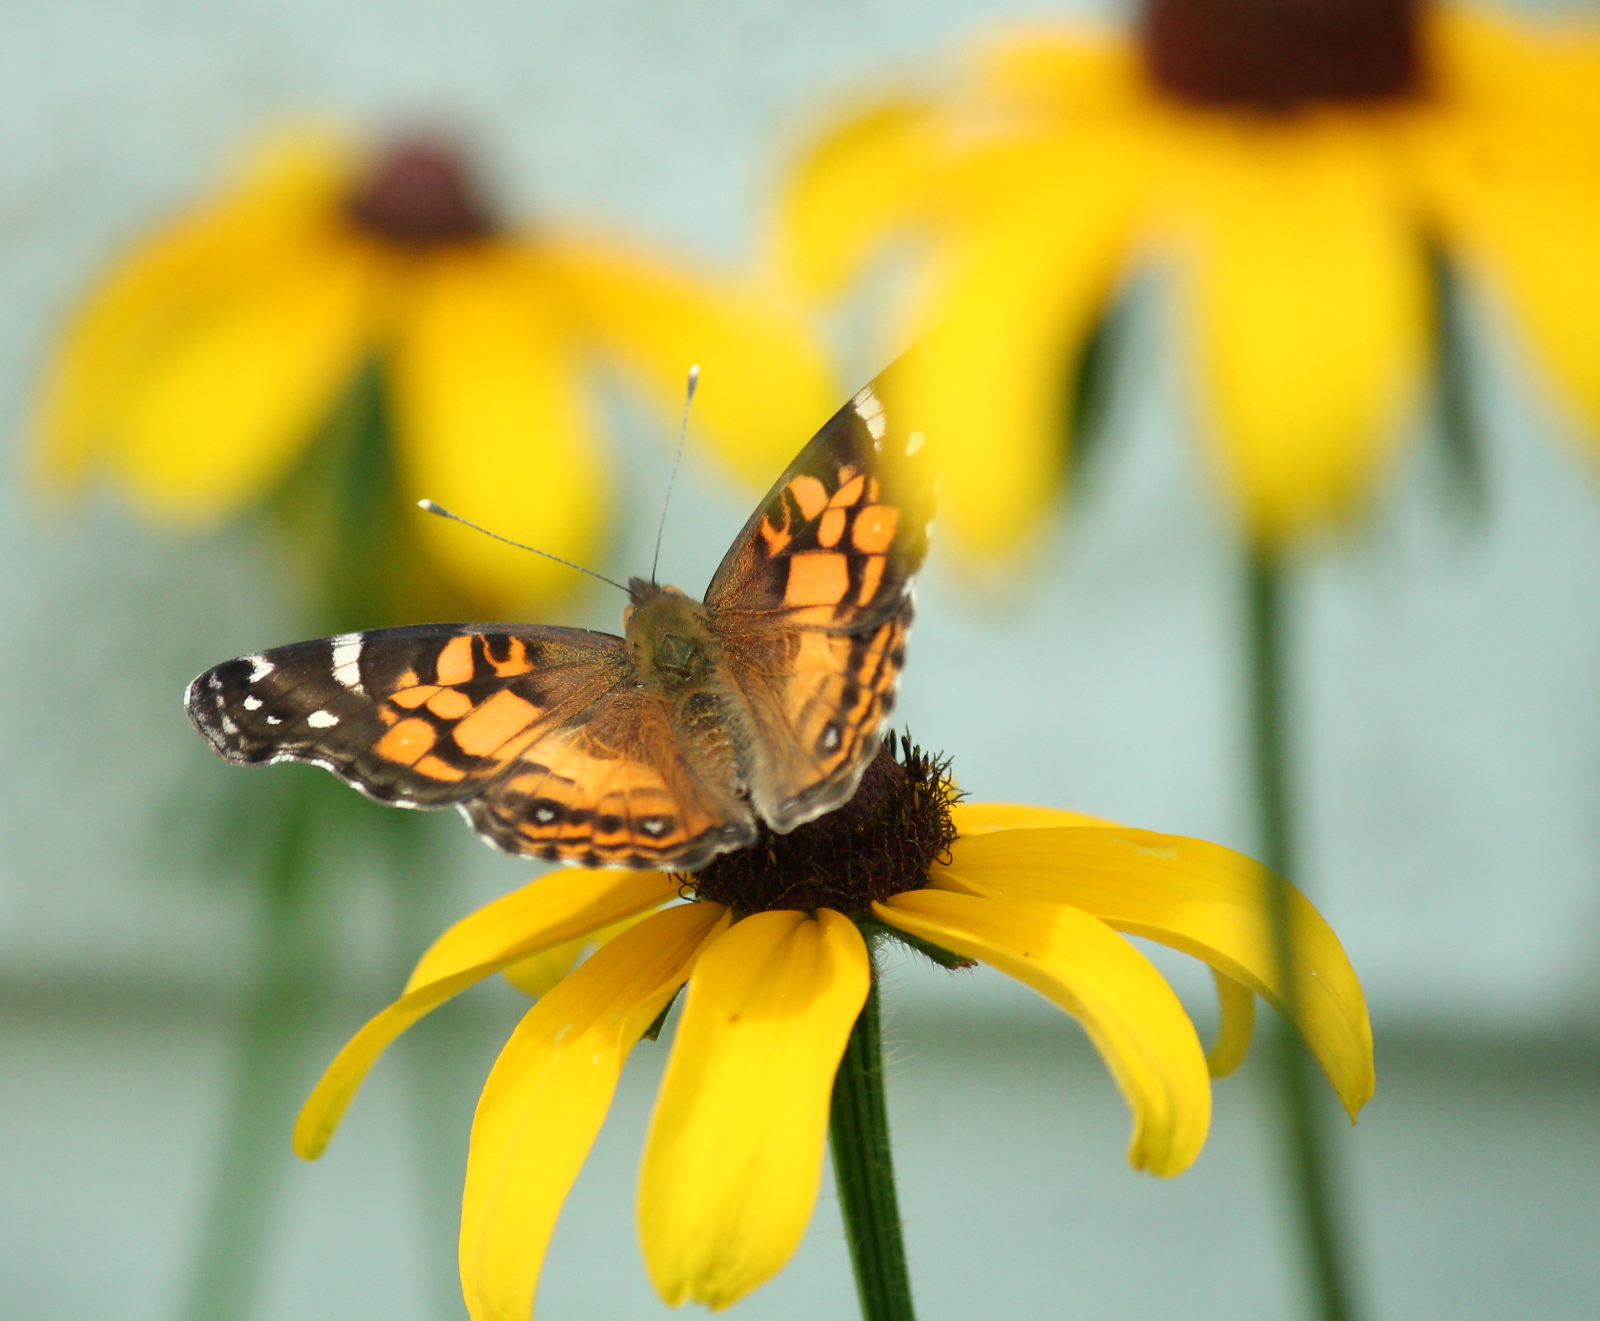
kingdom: Animalia
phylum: Arthropoda
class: Insecta
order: Lepidoptera
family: Nymphalidae
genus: Vanessa
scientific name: Vanessa virginiensis
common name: American lady
